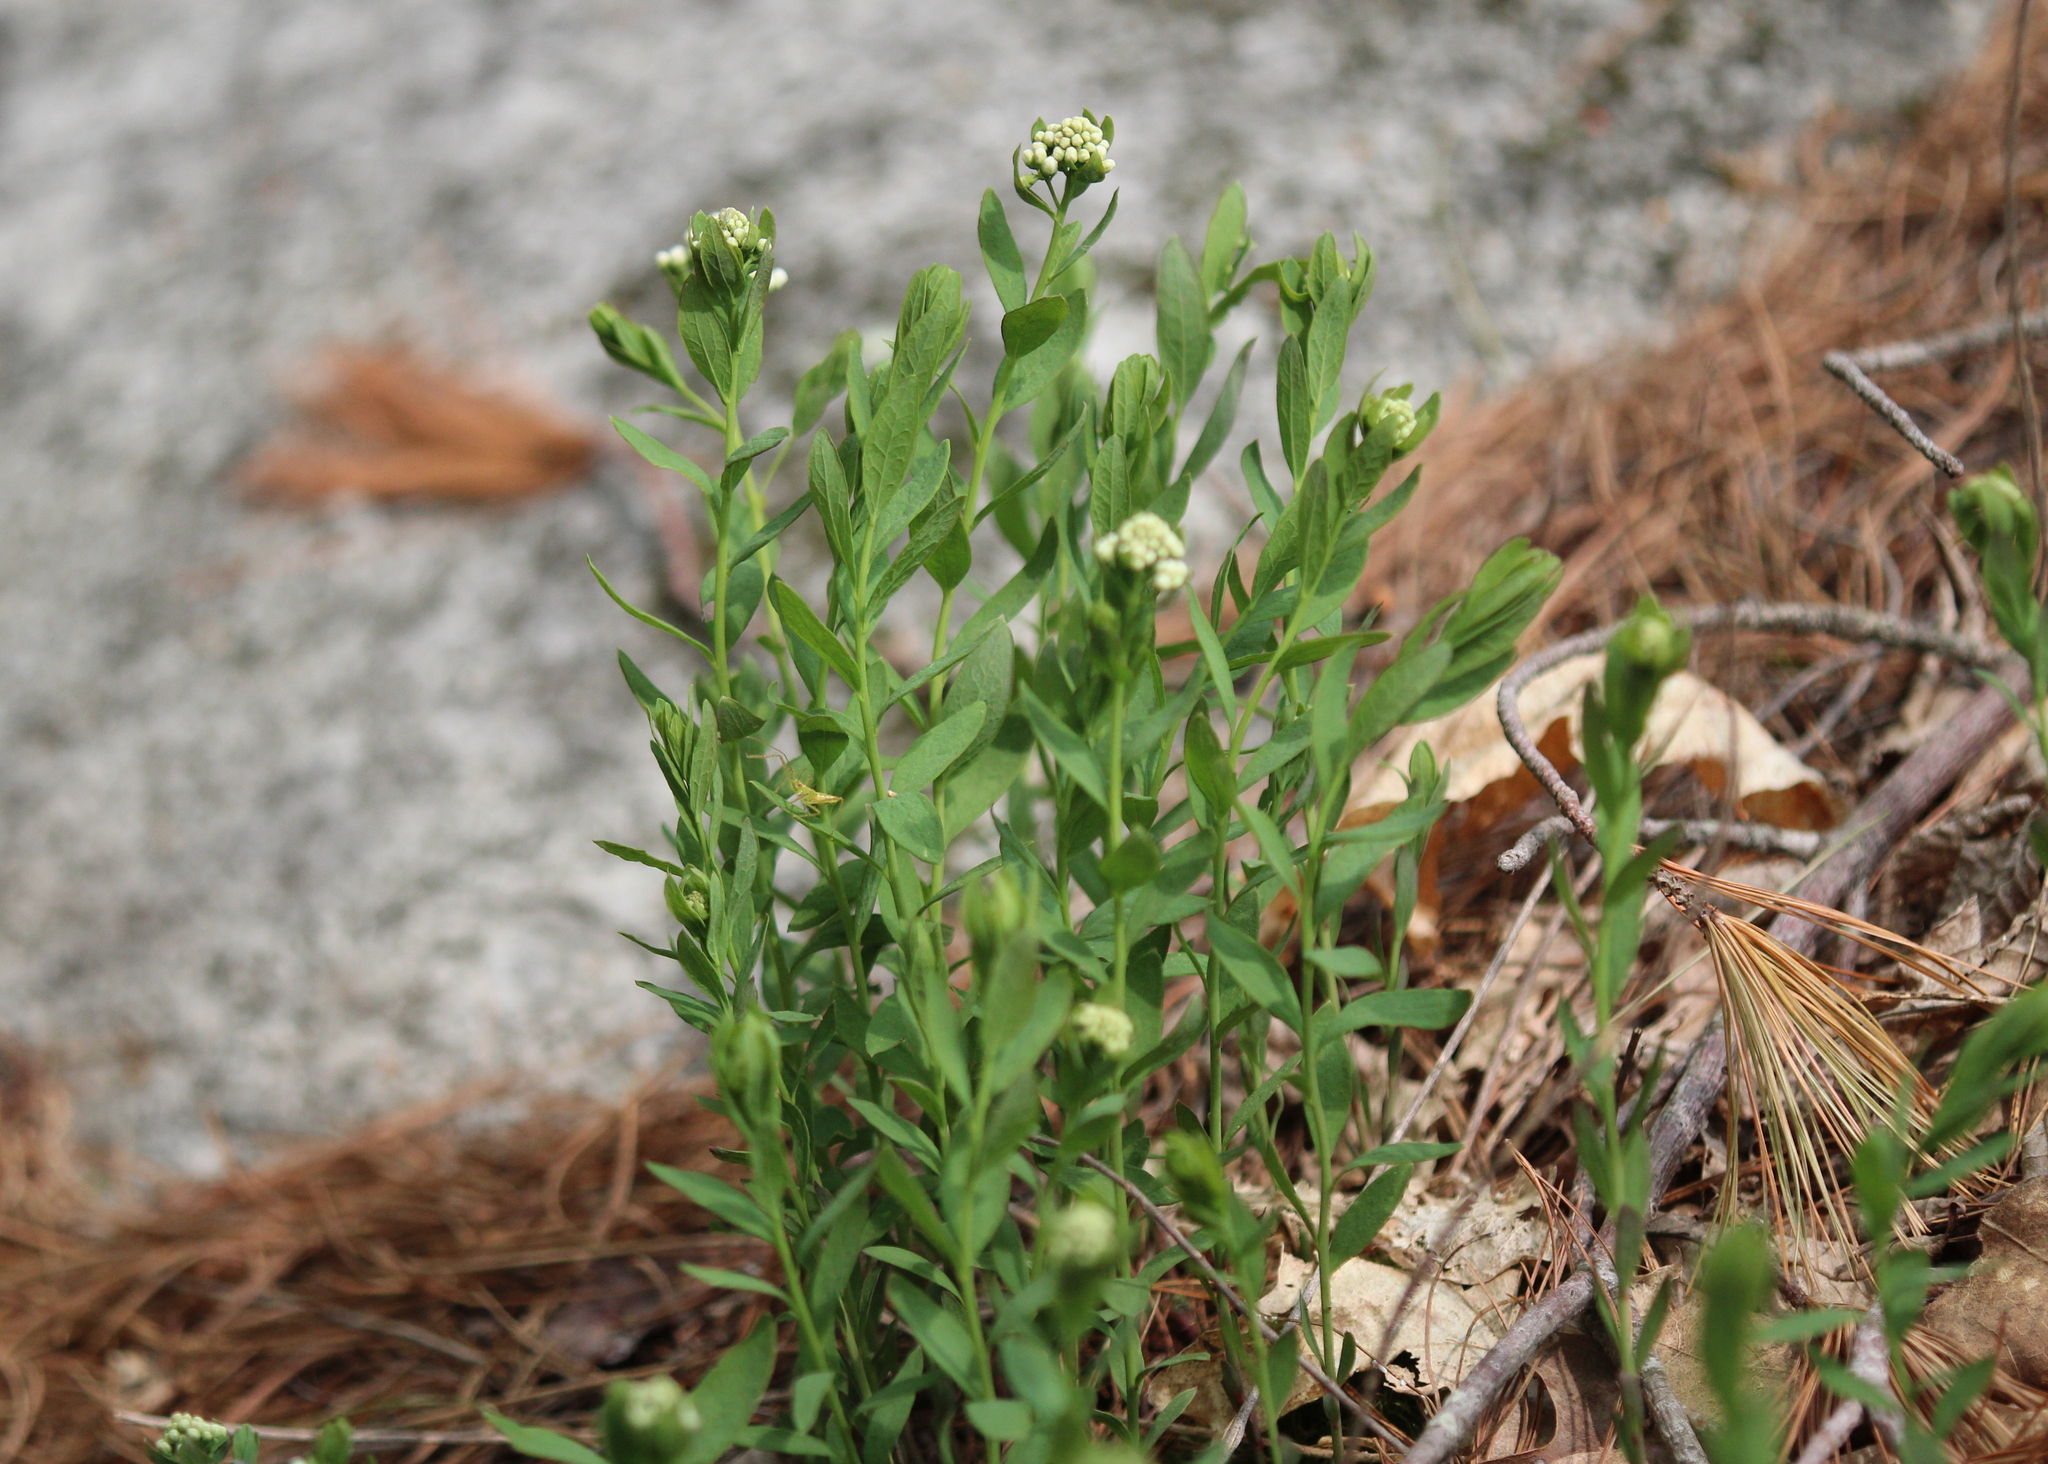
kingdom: Plantae
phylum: Tracheophyta
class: Magnoliopsida
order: Santalales
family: Comandraceae
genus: Comandra
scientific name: Comandra umbellata
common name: Bastard toadflax
